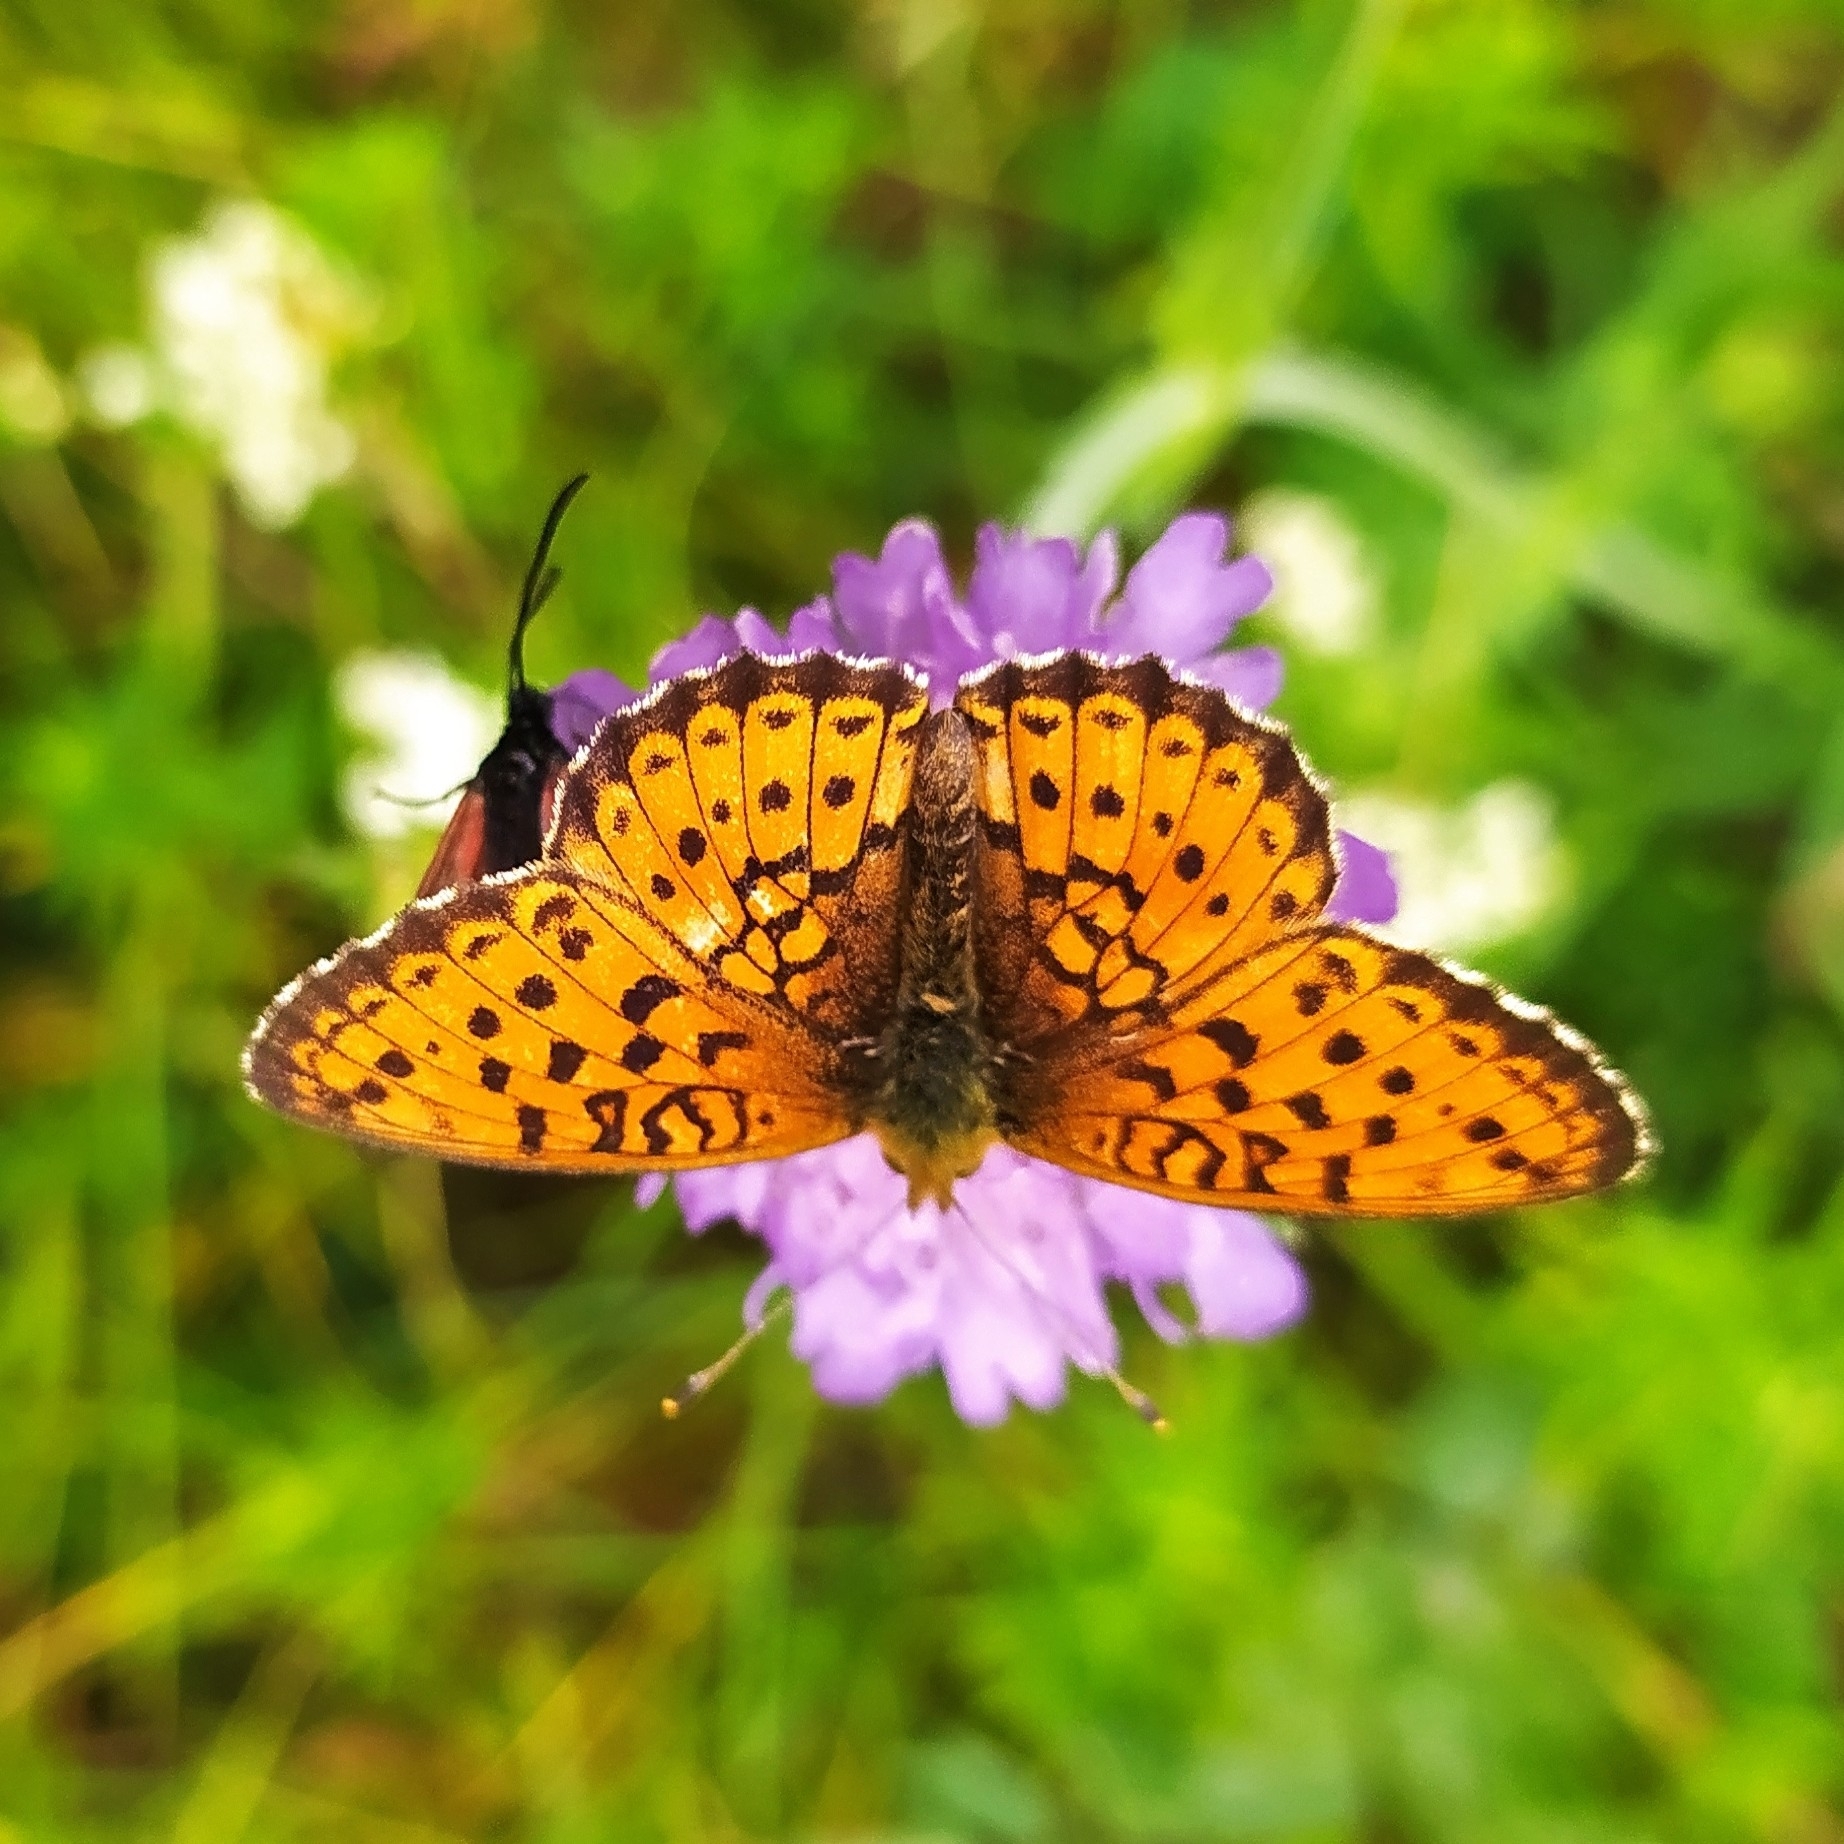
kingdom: Animalia
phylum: Arthropoda
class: Insecta
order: Lepidoptera
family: Nymphalidae
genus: Brenthis
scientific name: Brenthis ino
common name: Lesser marbled fritillary
